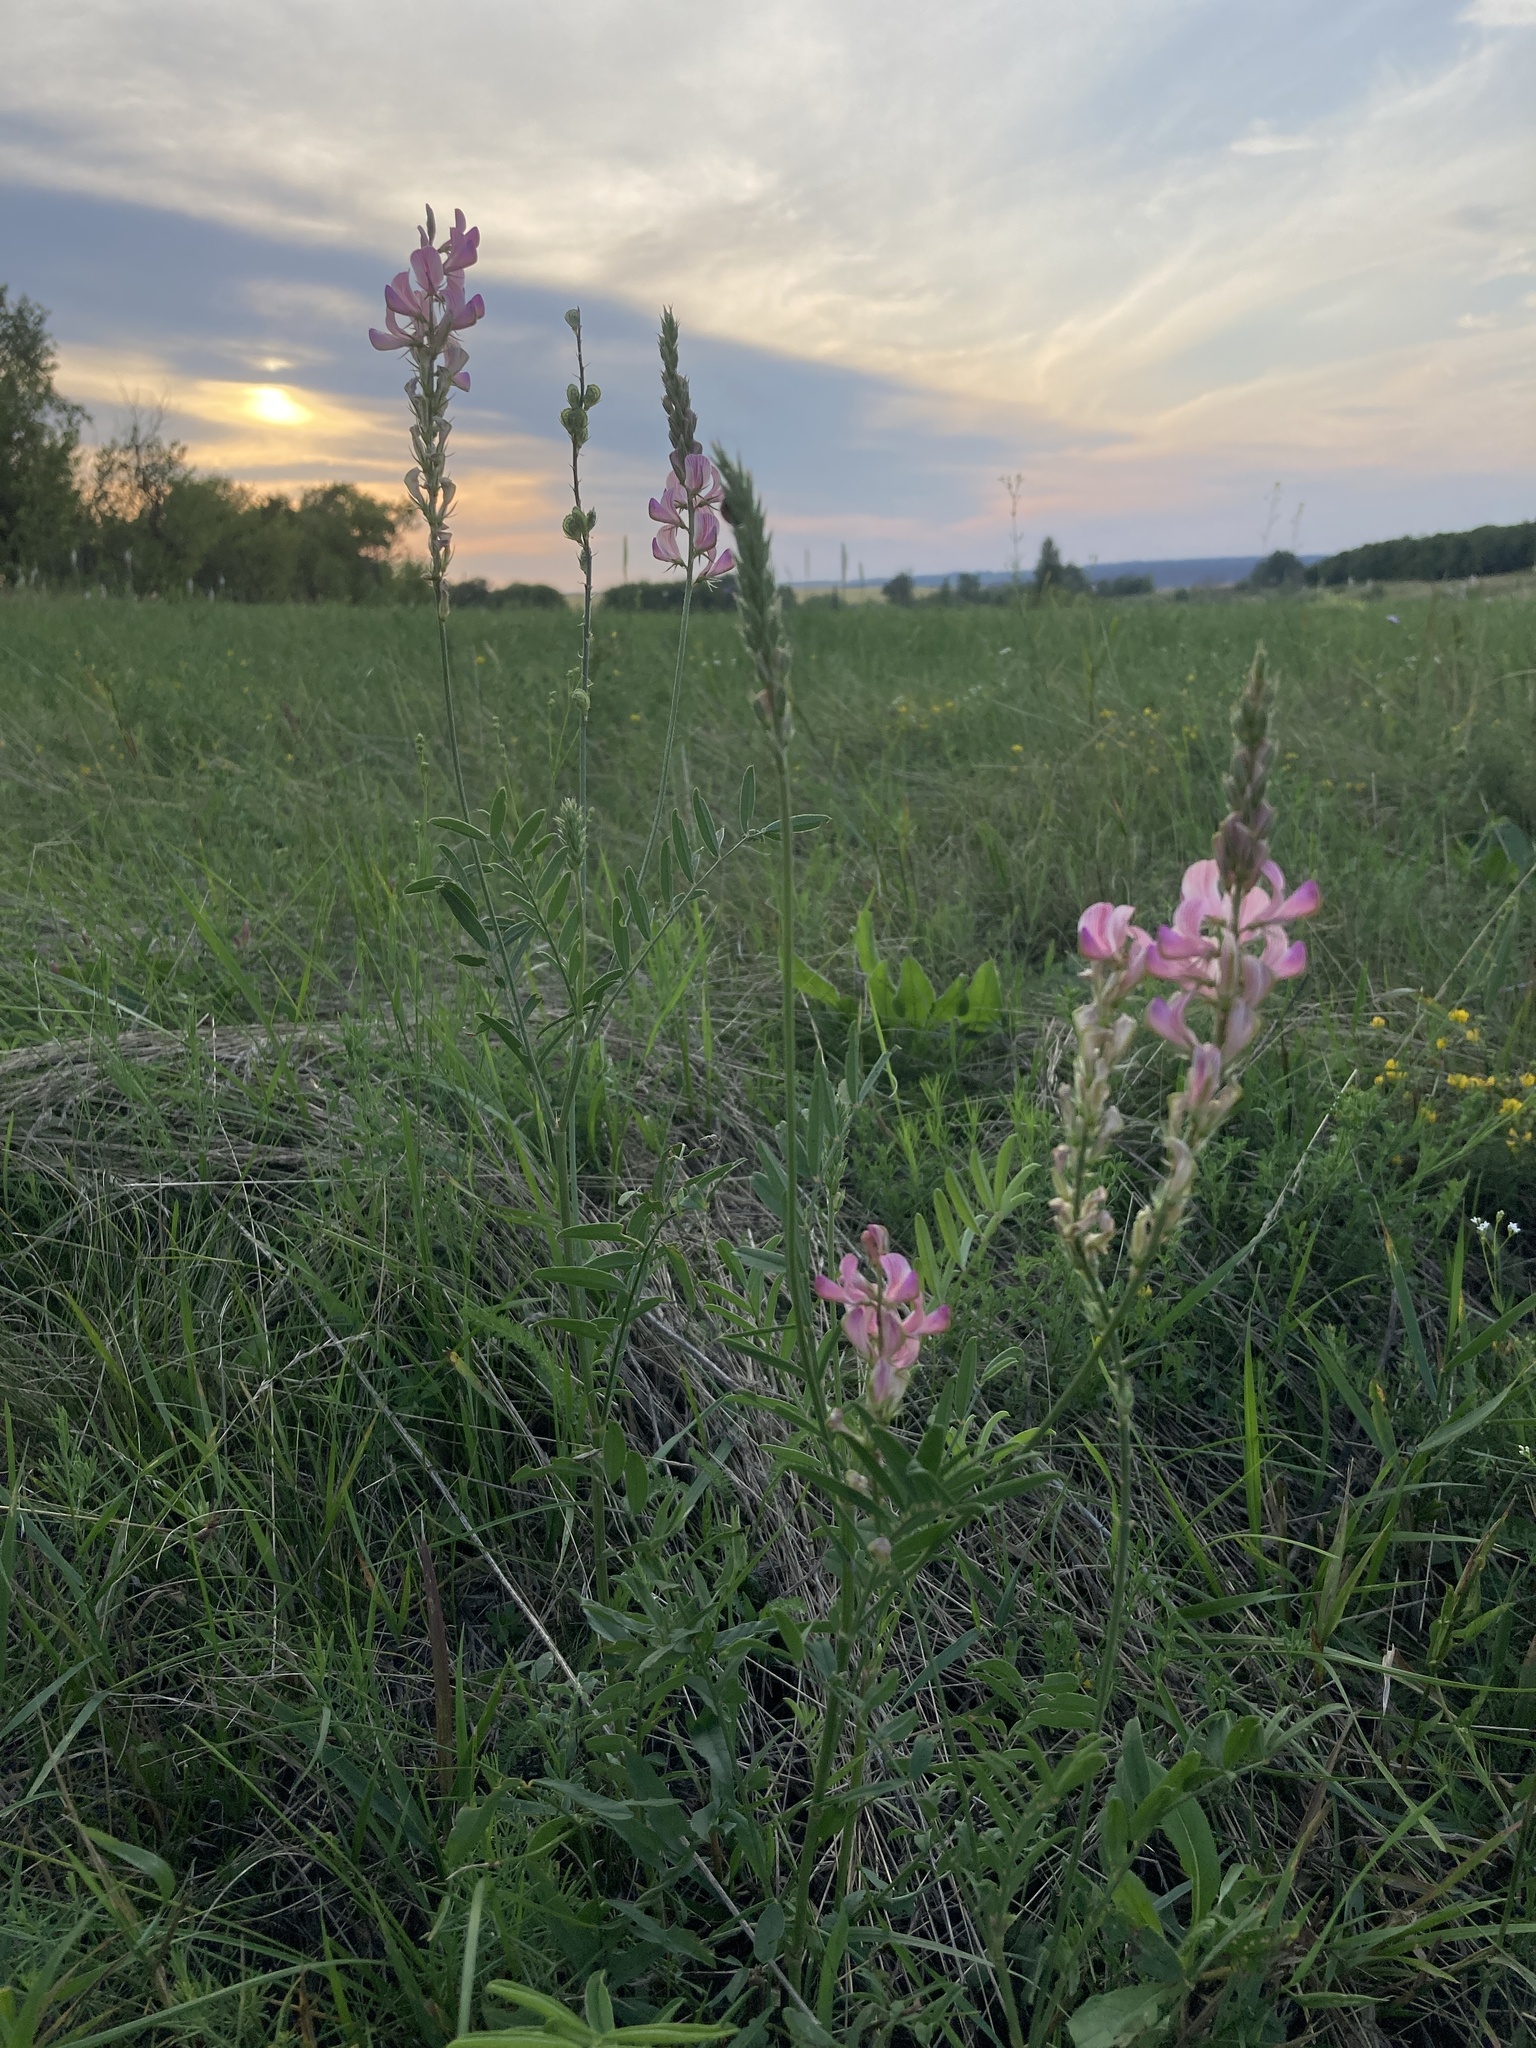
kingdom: Plantae
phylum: Tracheophyta
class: Magnoliopsida
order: Fabales
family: Fabaceae
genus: Onobrychis
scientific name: Onobrychis viciifolia
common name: Sainfoin
